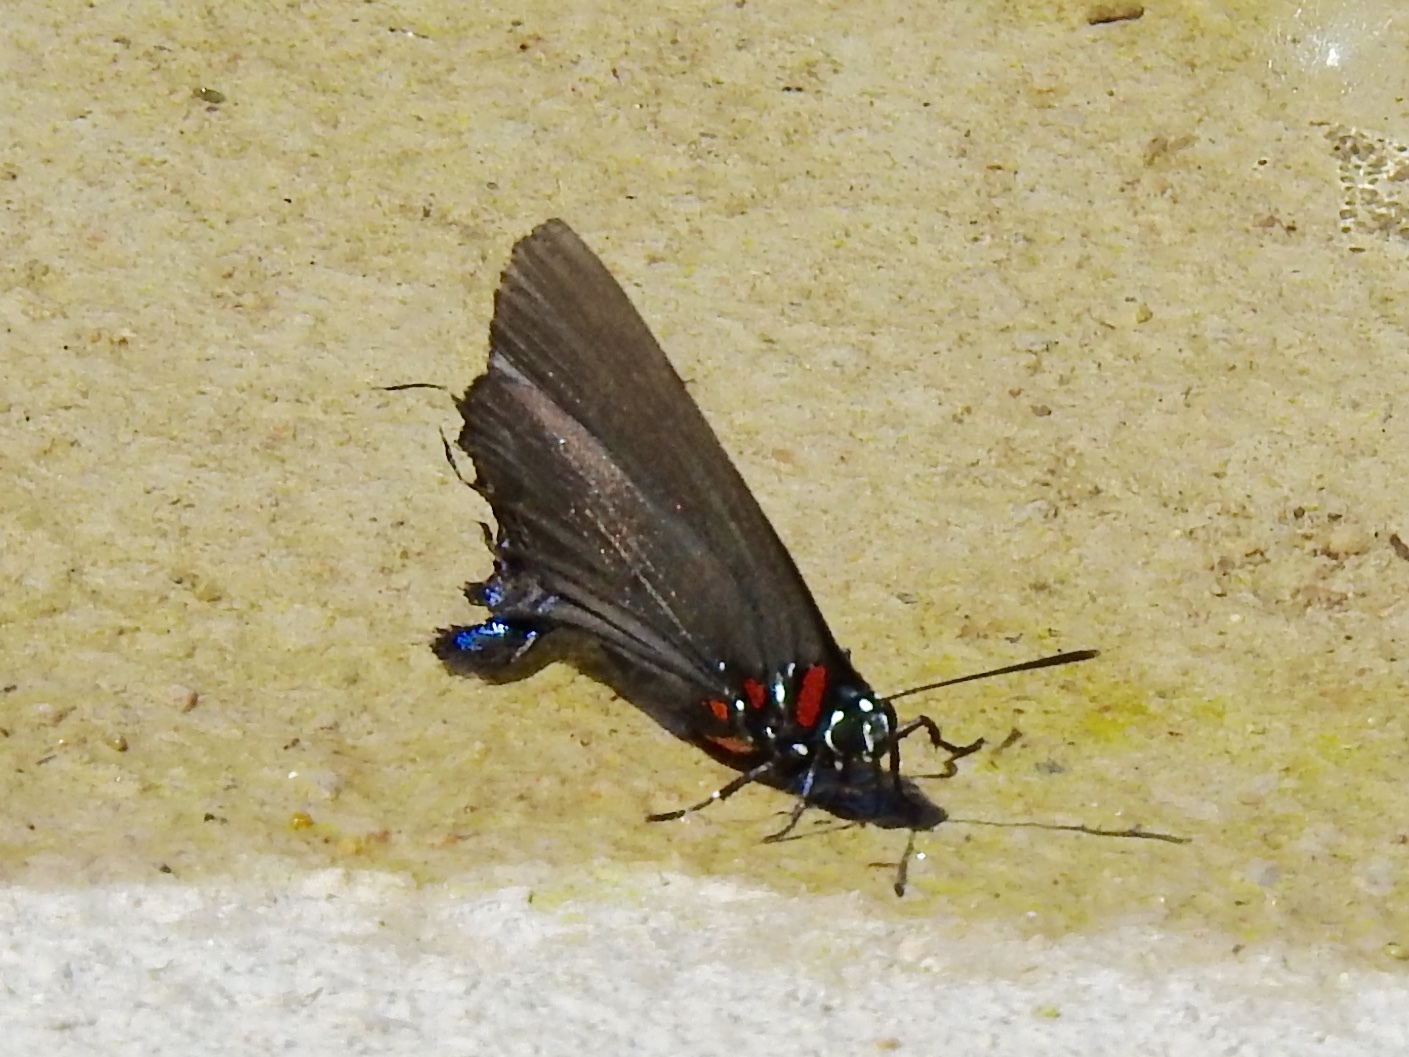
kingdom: Animalia
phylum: Arthropoda
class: Insecta
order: Lepidoptera
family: Lycaenidae
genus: Atlides
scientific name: Atlides halesus
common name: Great purple hairstreak
